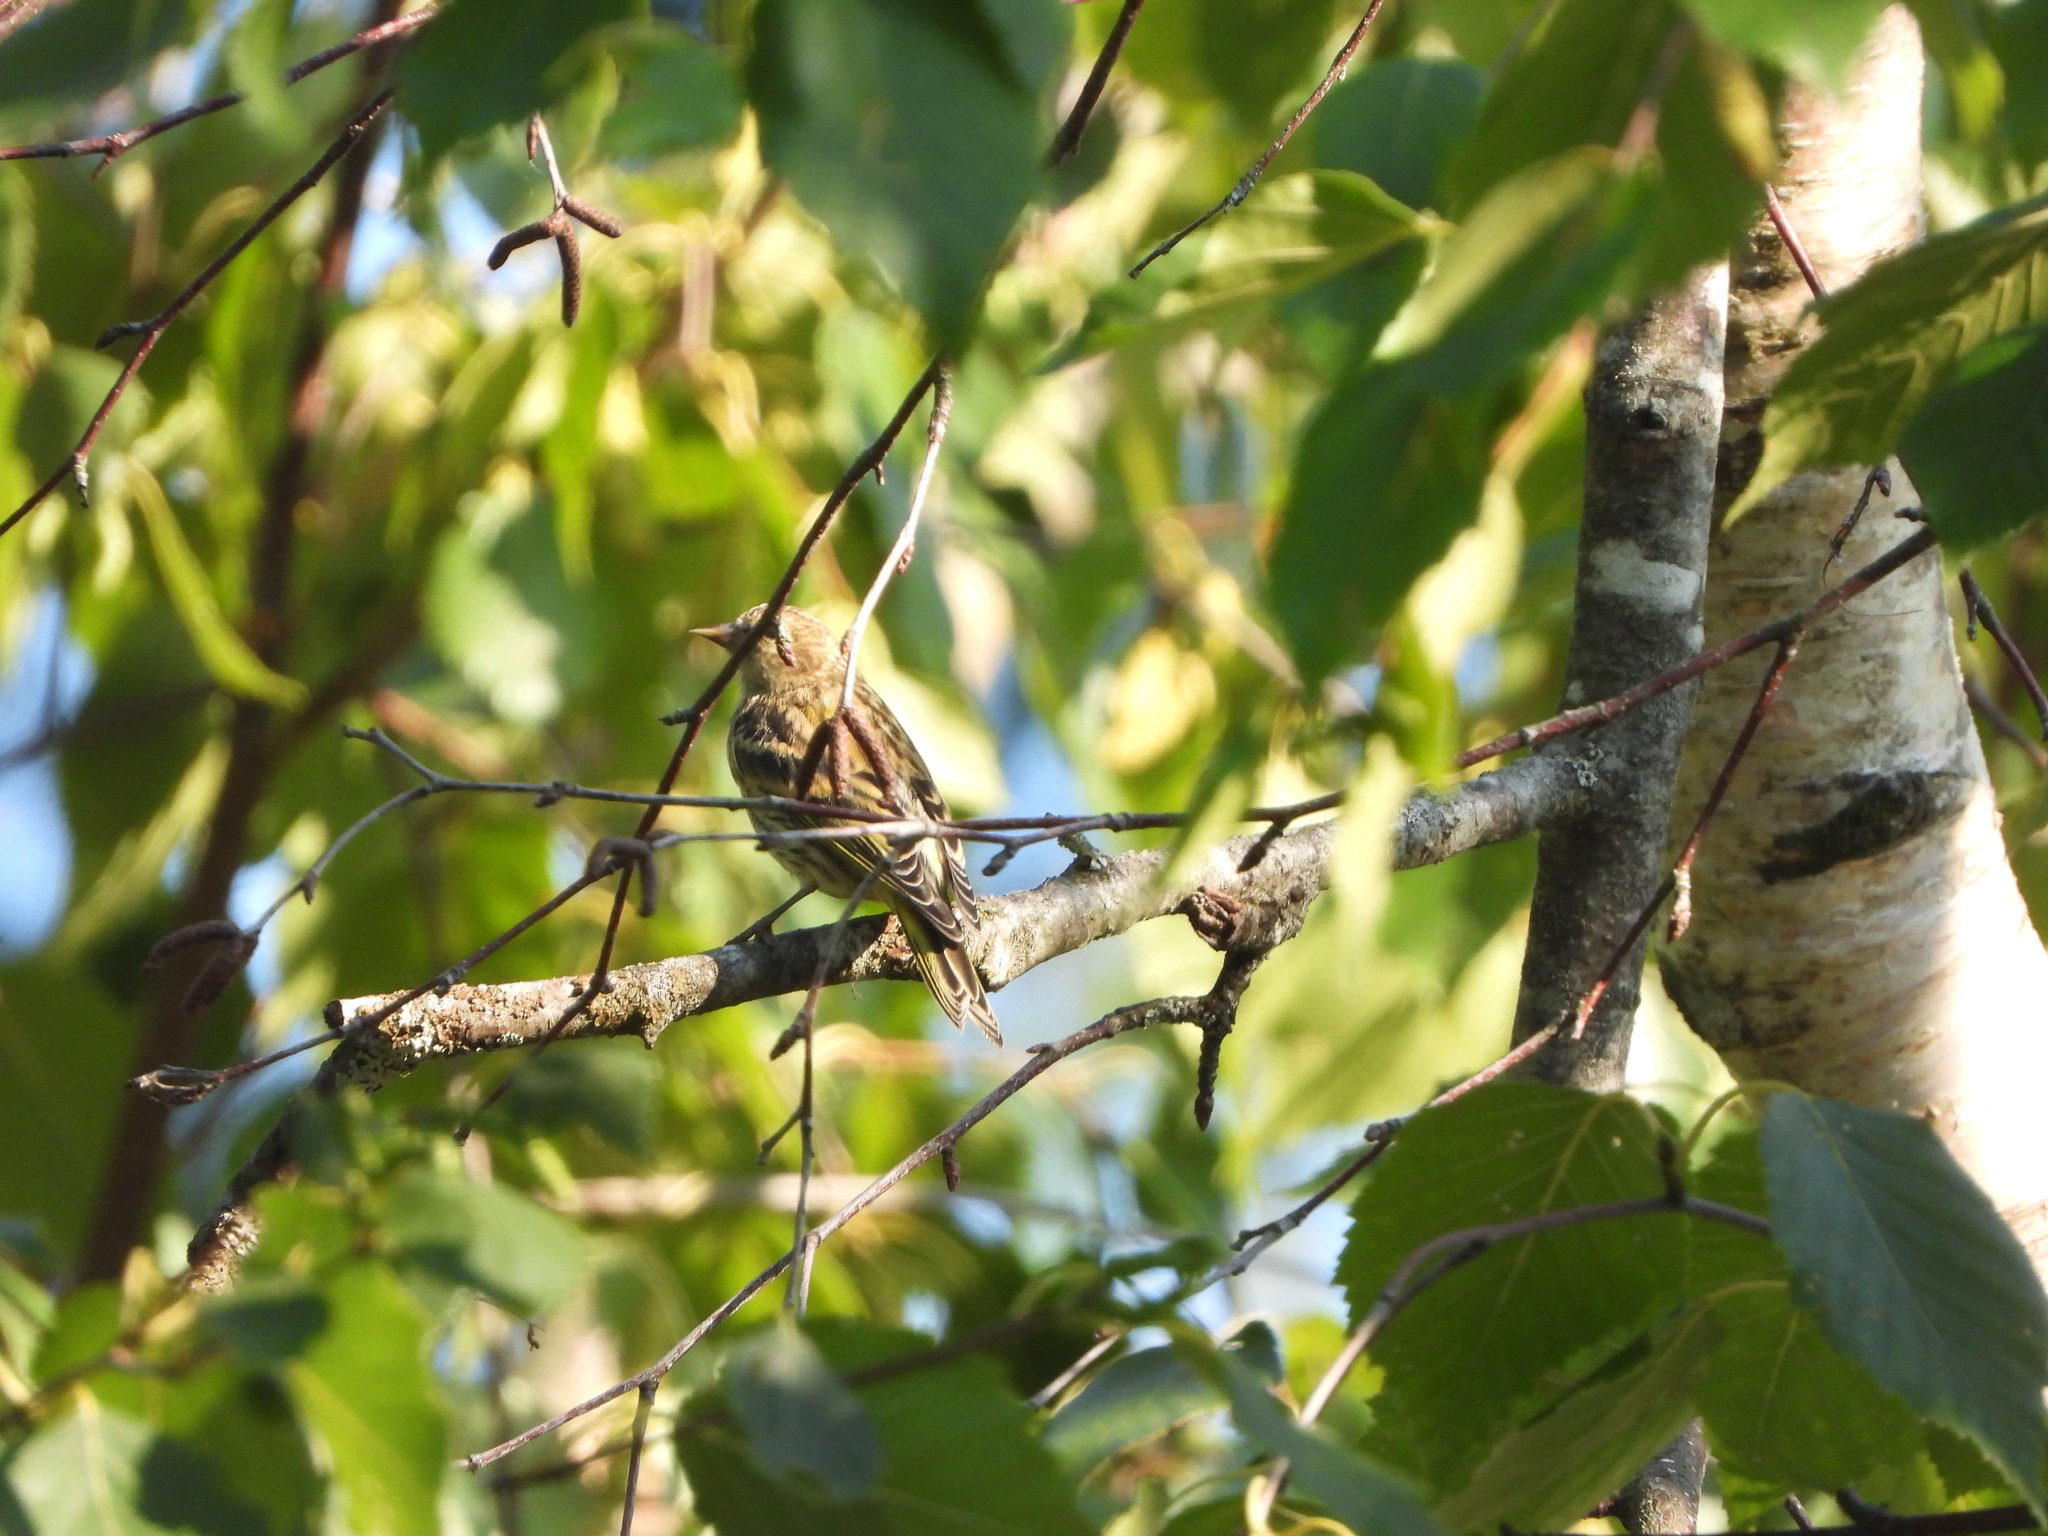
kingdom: Animalia
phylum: Chordata
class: Aves
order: Passeriformes
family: Fringillidae
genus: Spinus
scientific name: Spinus pinus
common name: Pine siskin
